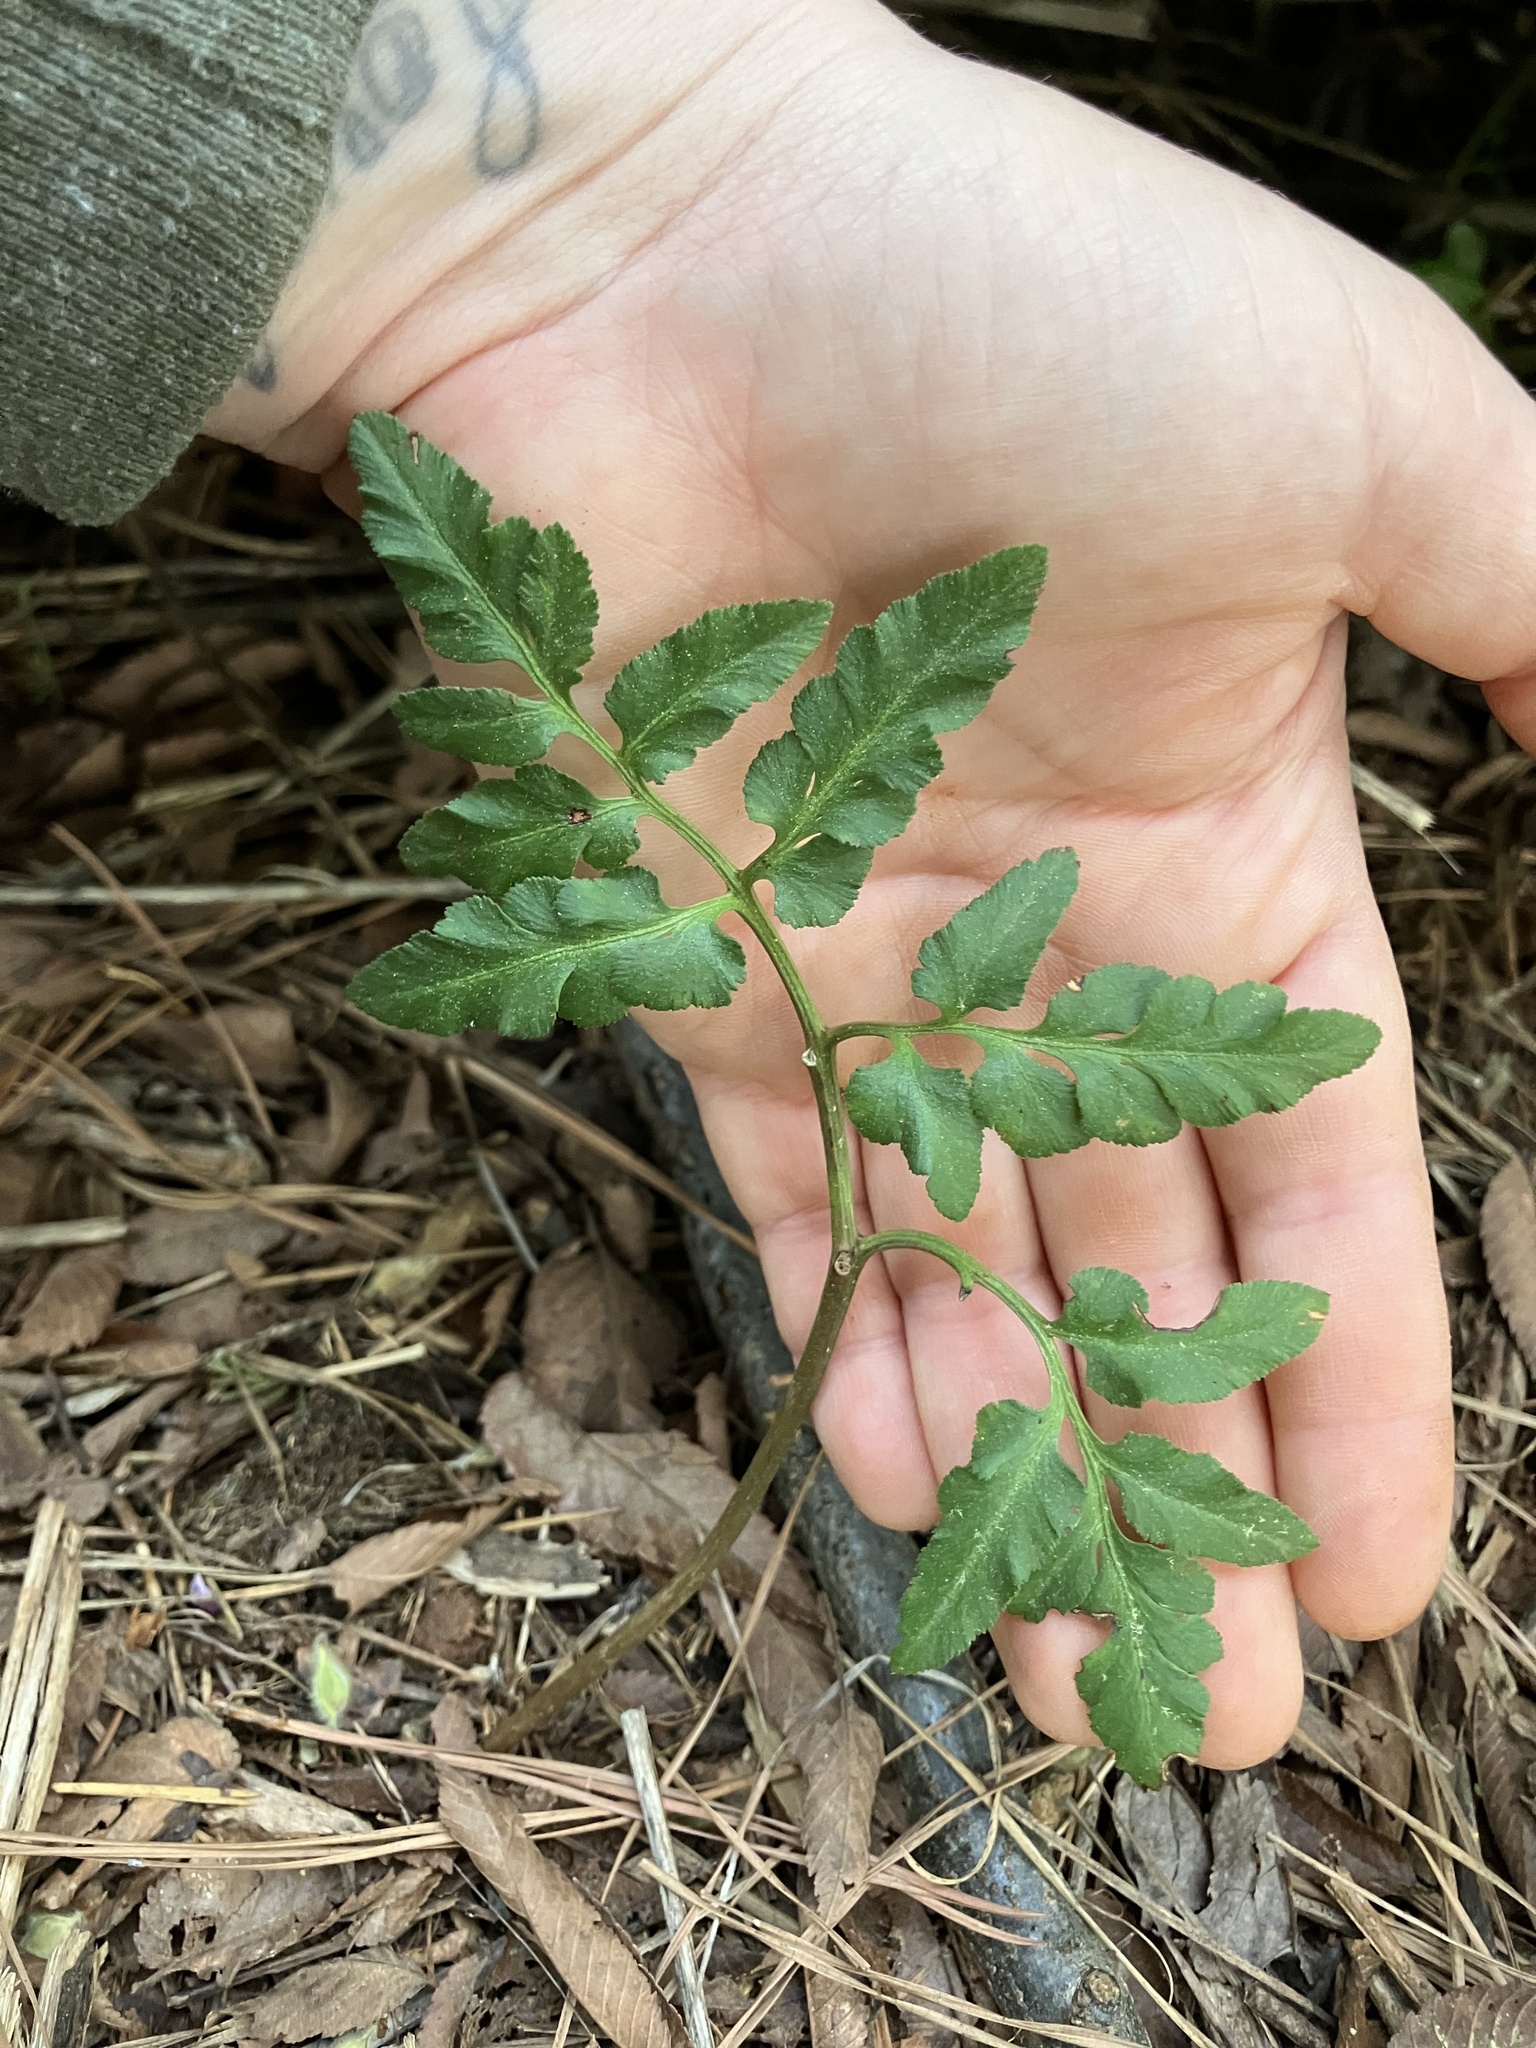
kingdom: Plantae
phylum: Tracheophyta
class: Polypodiopsida
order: Ophioglossales
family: Ophioglossaceae
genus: Sceptridium
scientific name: Sceptridium dissectum
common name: Cut-leaved grapefern
